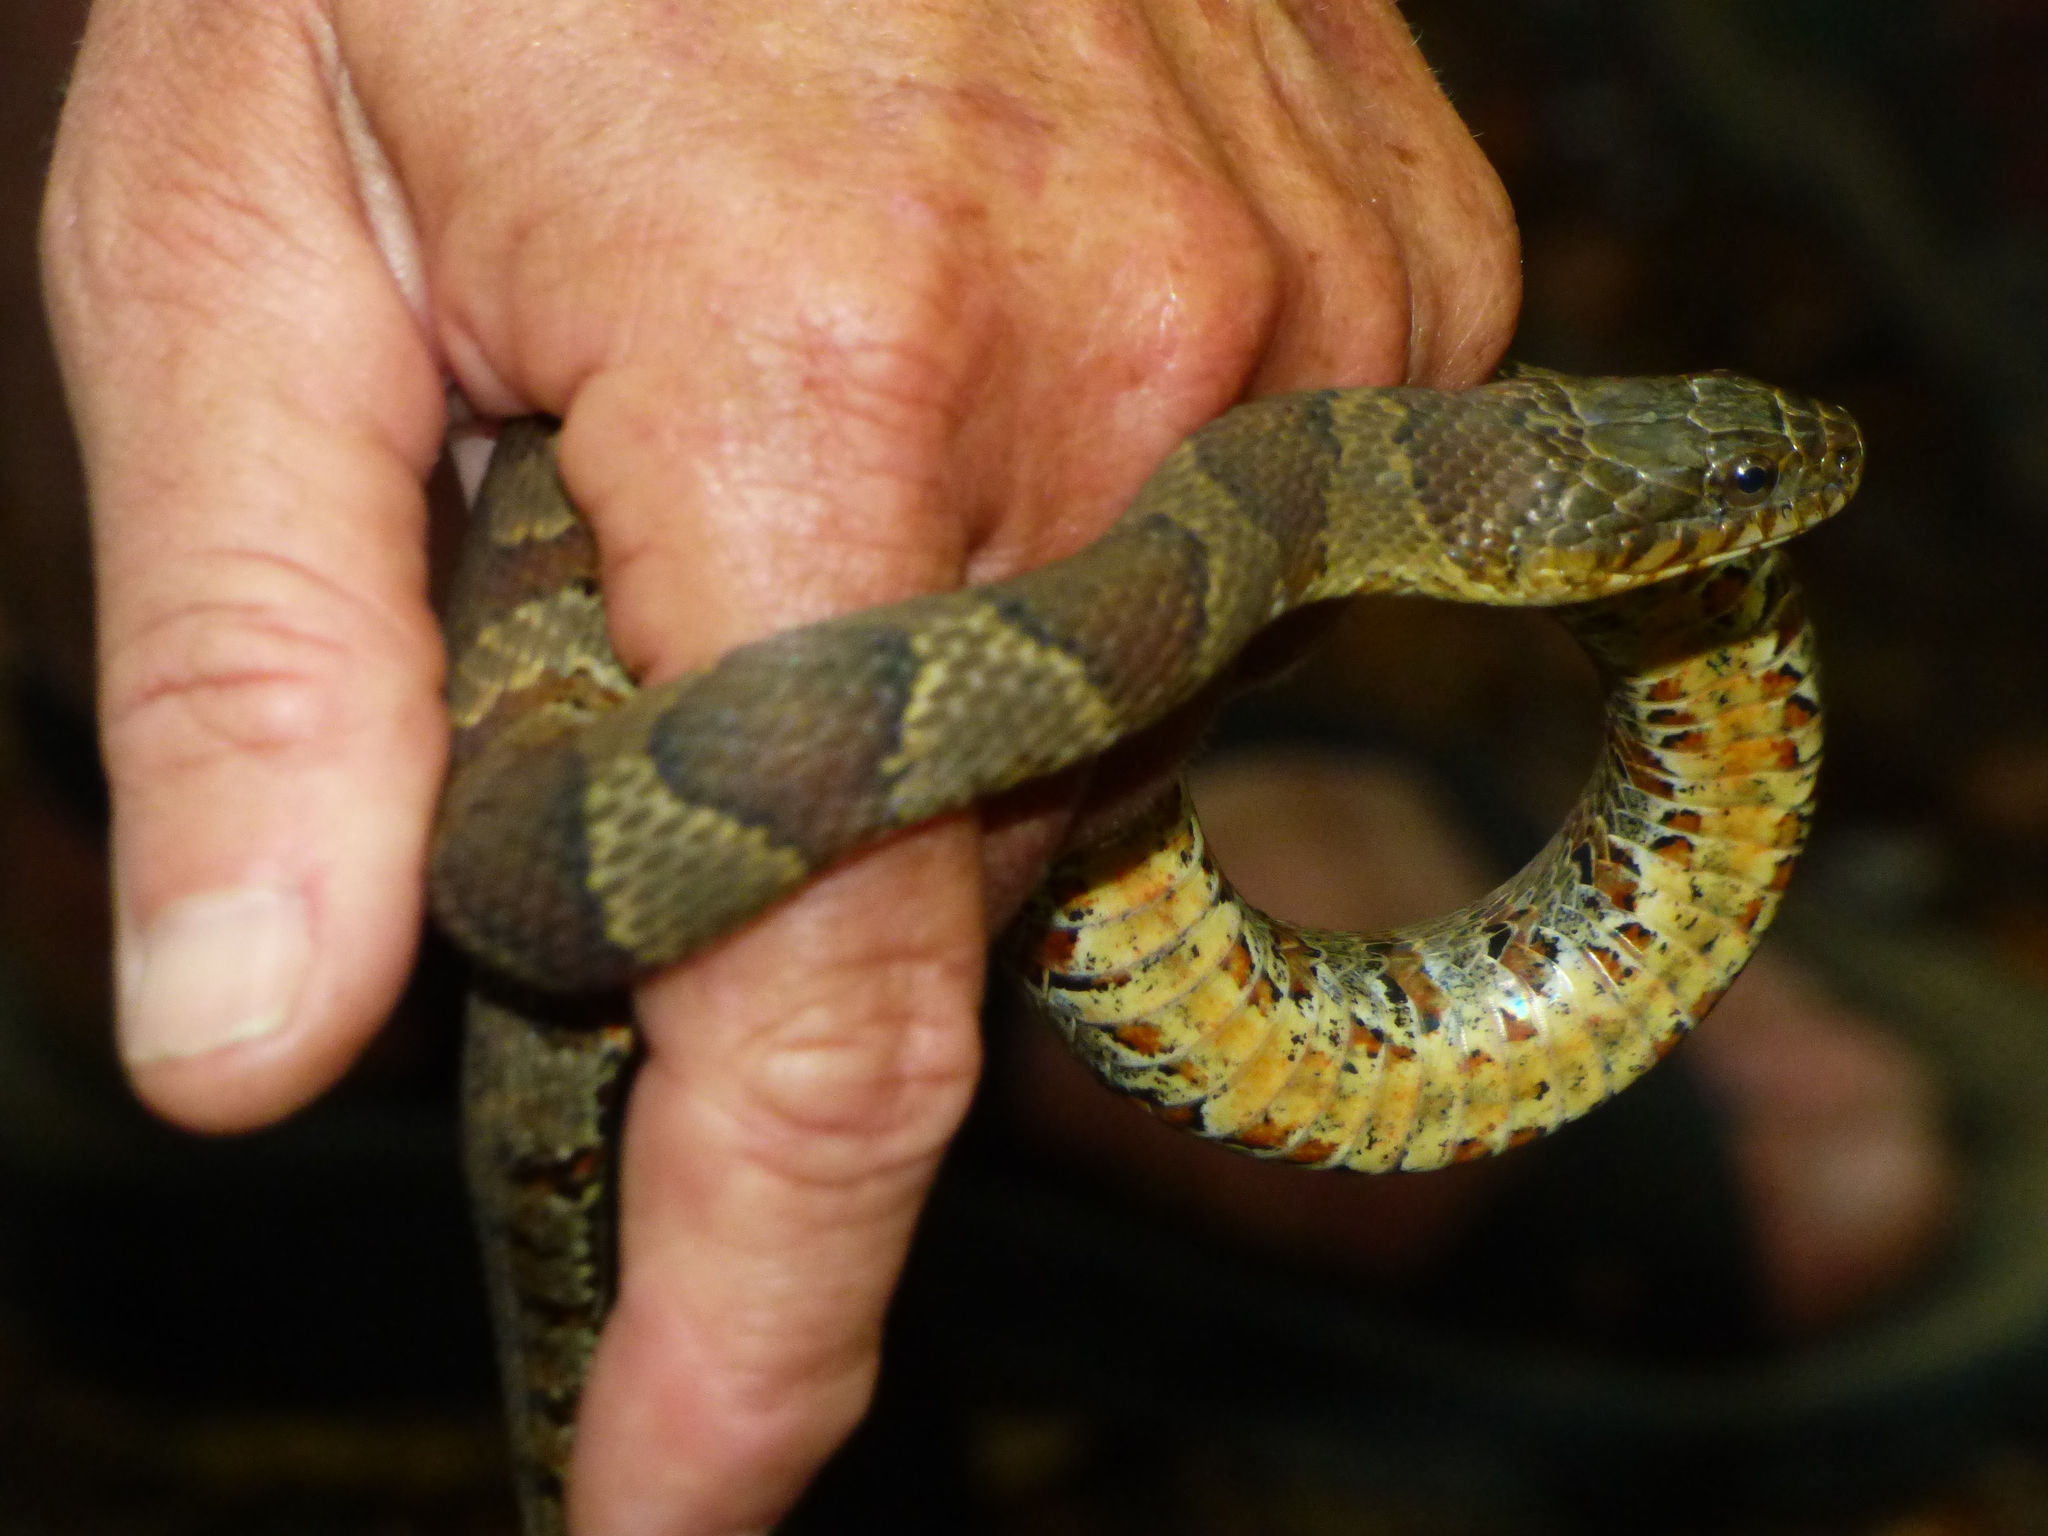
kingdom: Animalia
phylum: Chordata
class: Squamata
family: Colubridae
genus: Nerodia
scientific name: Nerodia sipedon
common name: Northern water snake
